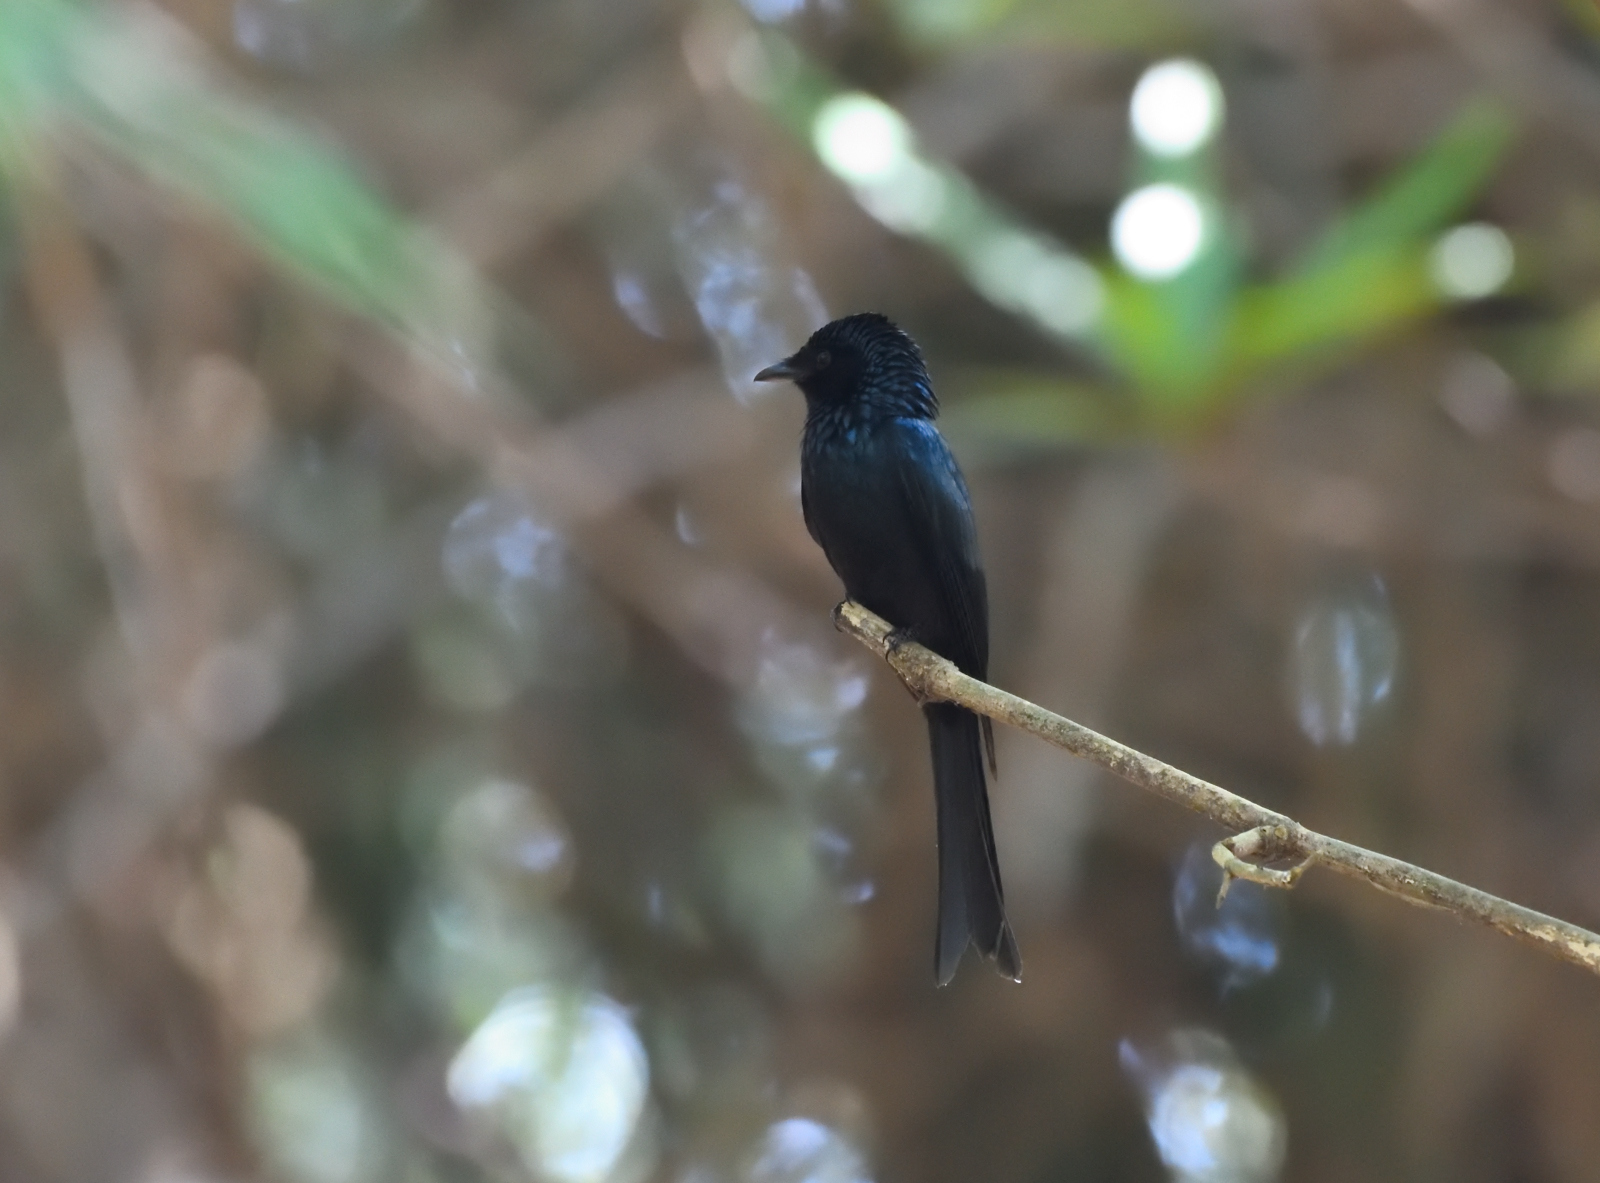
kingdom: Animalia
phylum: Chordata
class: Aves
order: Passeriformes
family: Dicruridae
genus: Dicrurus
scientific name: Dicrurus aeneus
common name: Bronzed drongo
